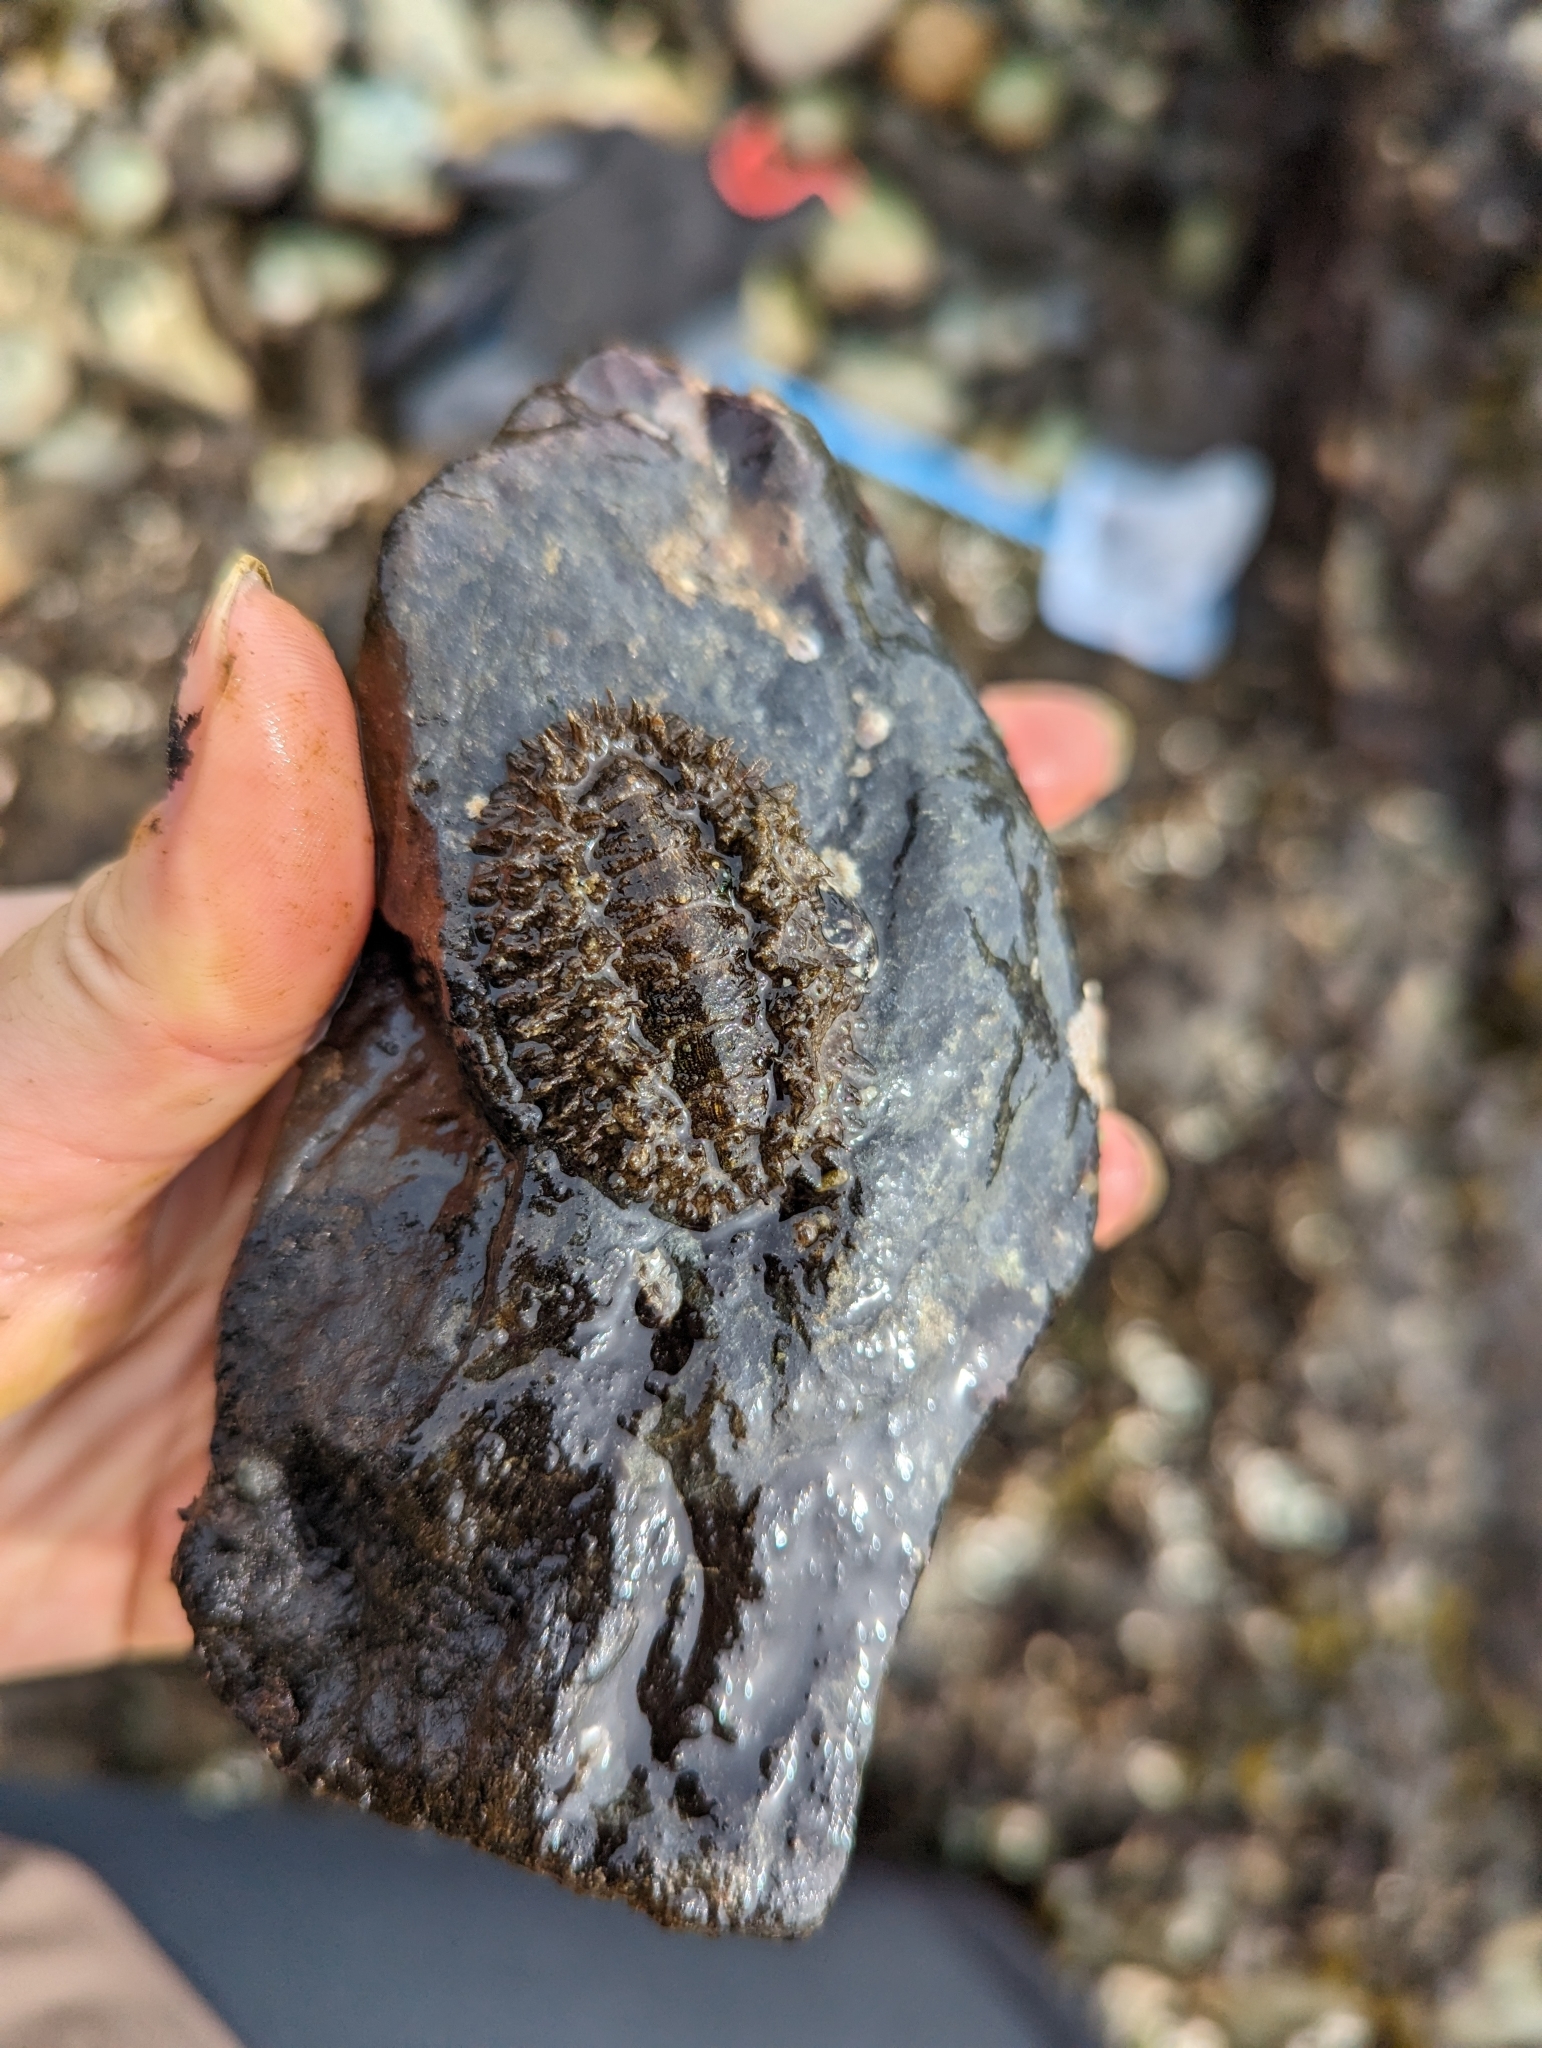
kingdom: Animalia
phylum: Mollusca
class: Polyplacophora
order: Chitonida
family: Mopaliidae
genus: Mopalia
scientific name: Mopalia muscosa
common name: Mossy chiton
